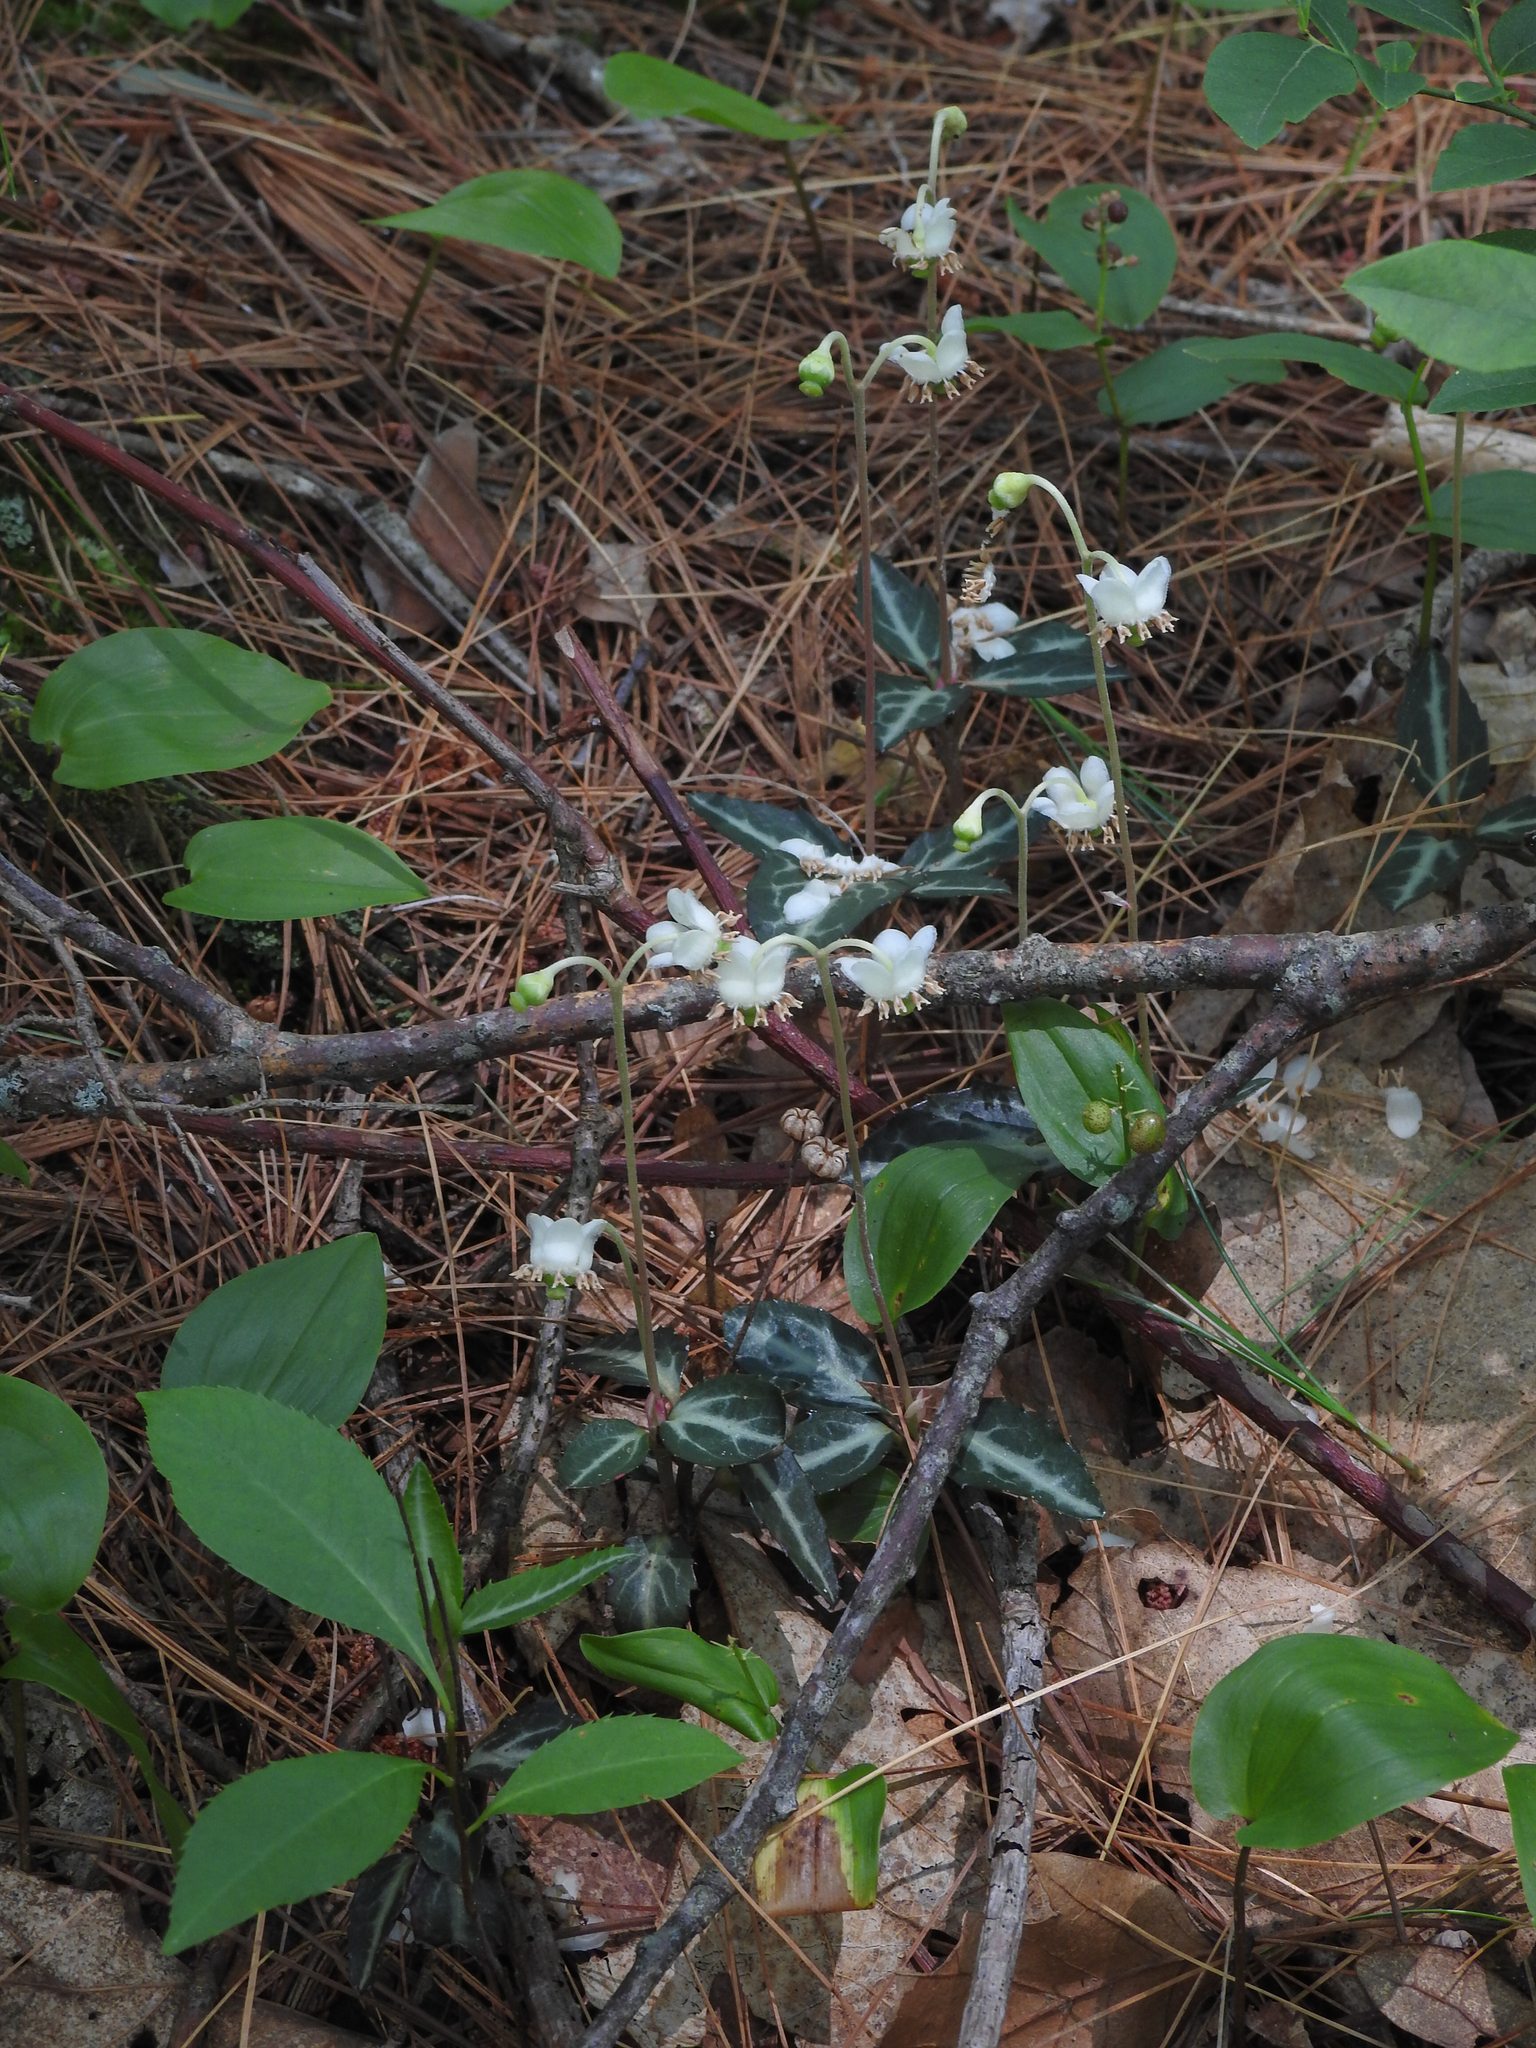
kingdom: Plantae
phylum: Tracheophyta
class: Magnoliopsida
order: Ericales
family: Ericaceae
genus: Chimaphila
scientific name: Chimaphila maculata
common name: Spotted pipsissewa
